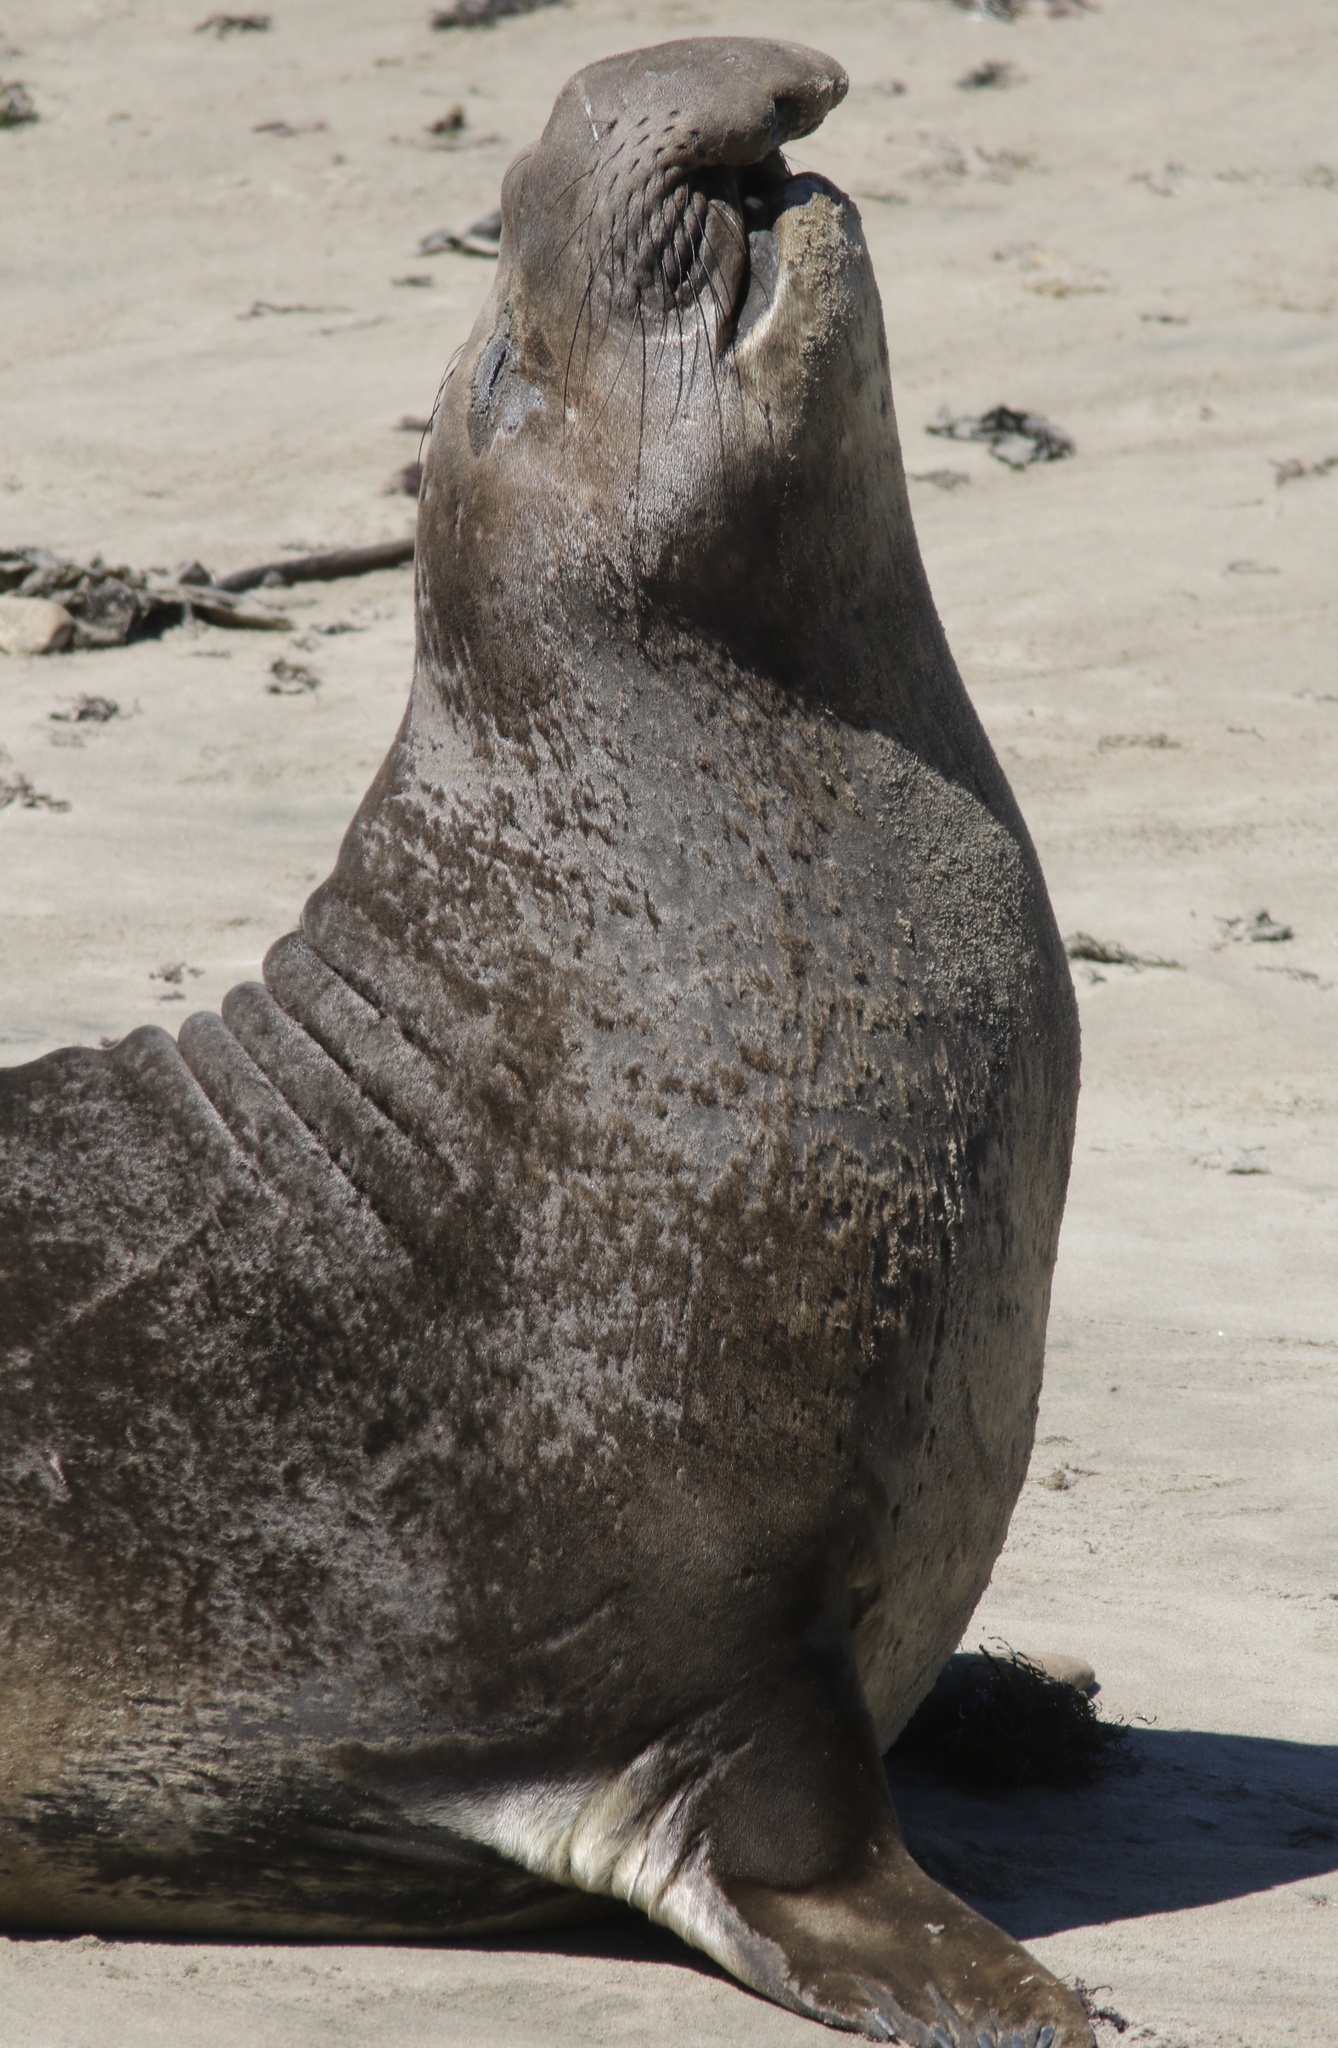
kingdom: Animalia
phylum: Chordata
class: Mammalia
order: Carnivora
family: Phocidae
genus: Mirounga
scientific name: Mirounga angustirostris
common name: Northern elephant seal
